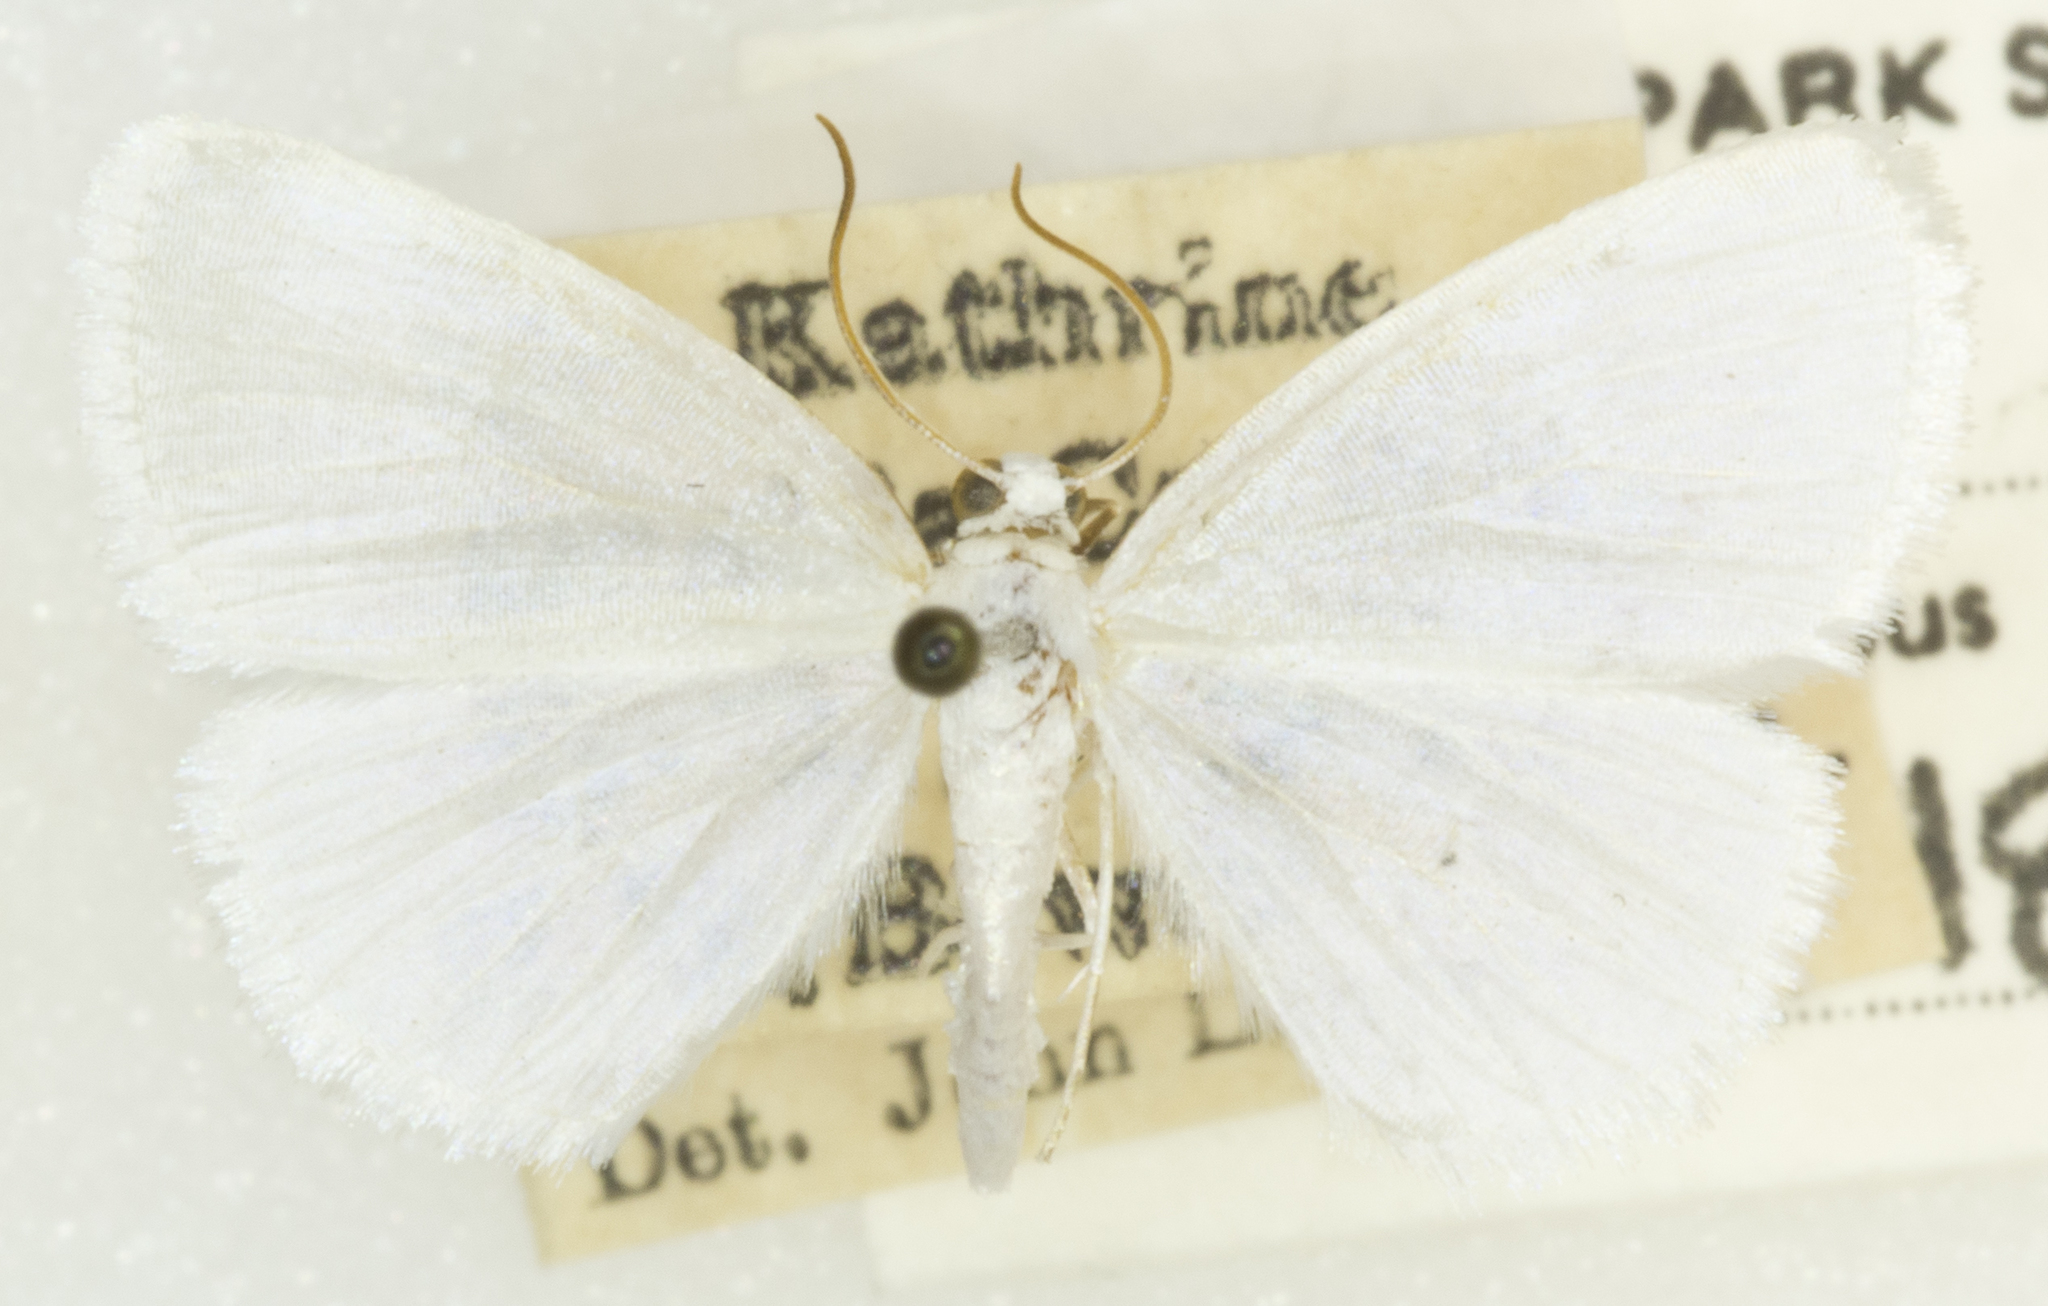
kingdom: Animalia
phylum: Arthropoda
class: Insecta
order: Lepidoptera
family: Geometridae
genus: Lomographa
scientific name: Lomographa vestaliata
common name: White spring moth
